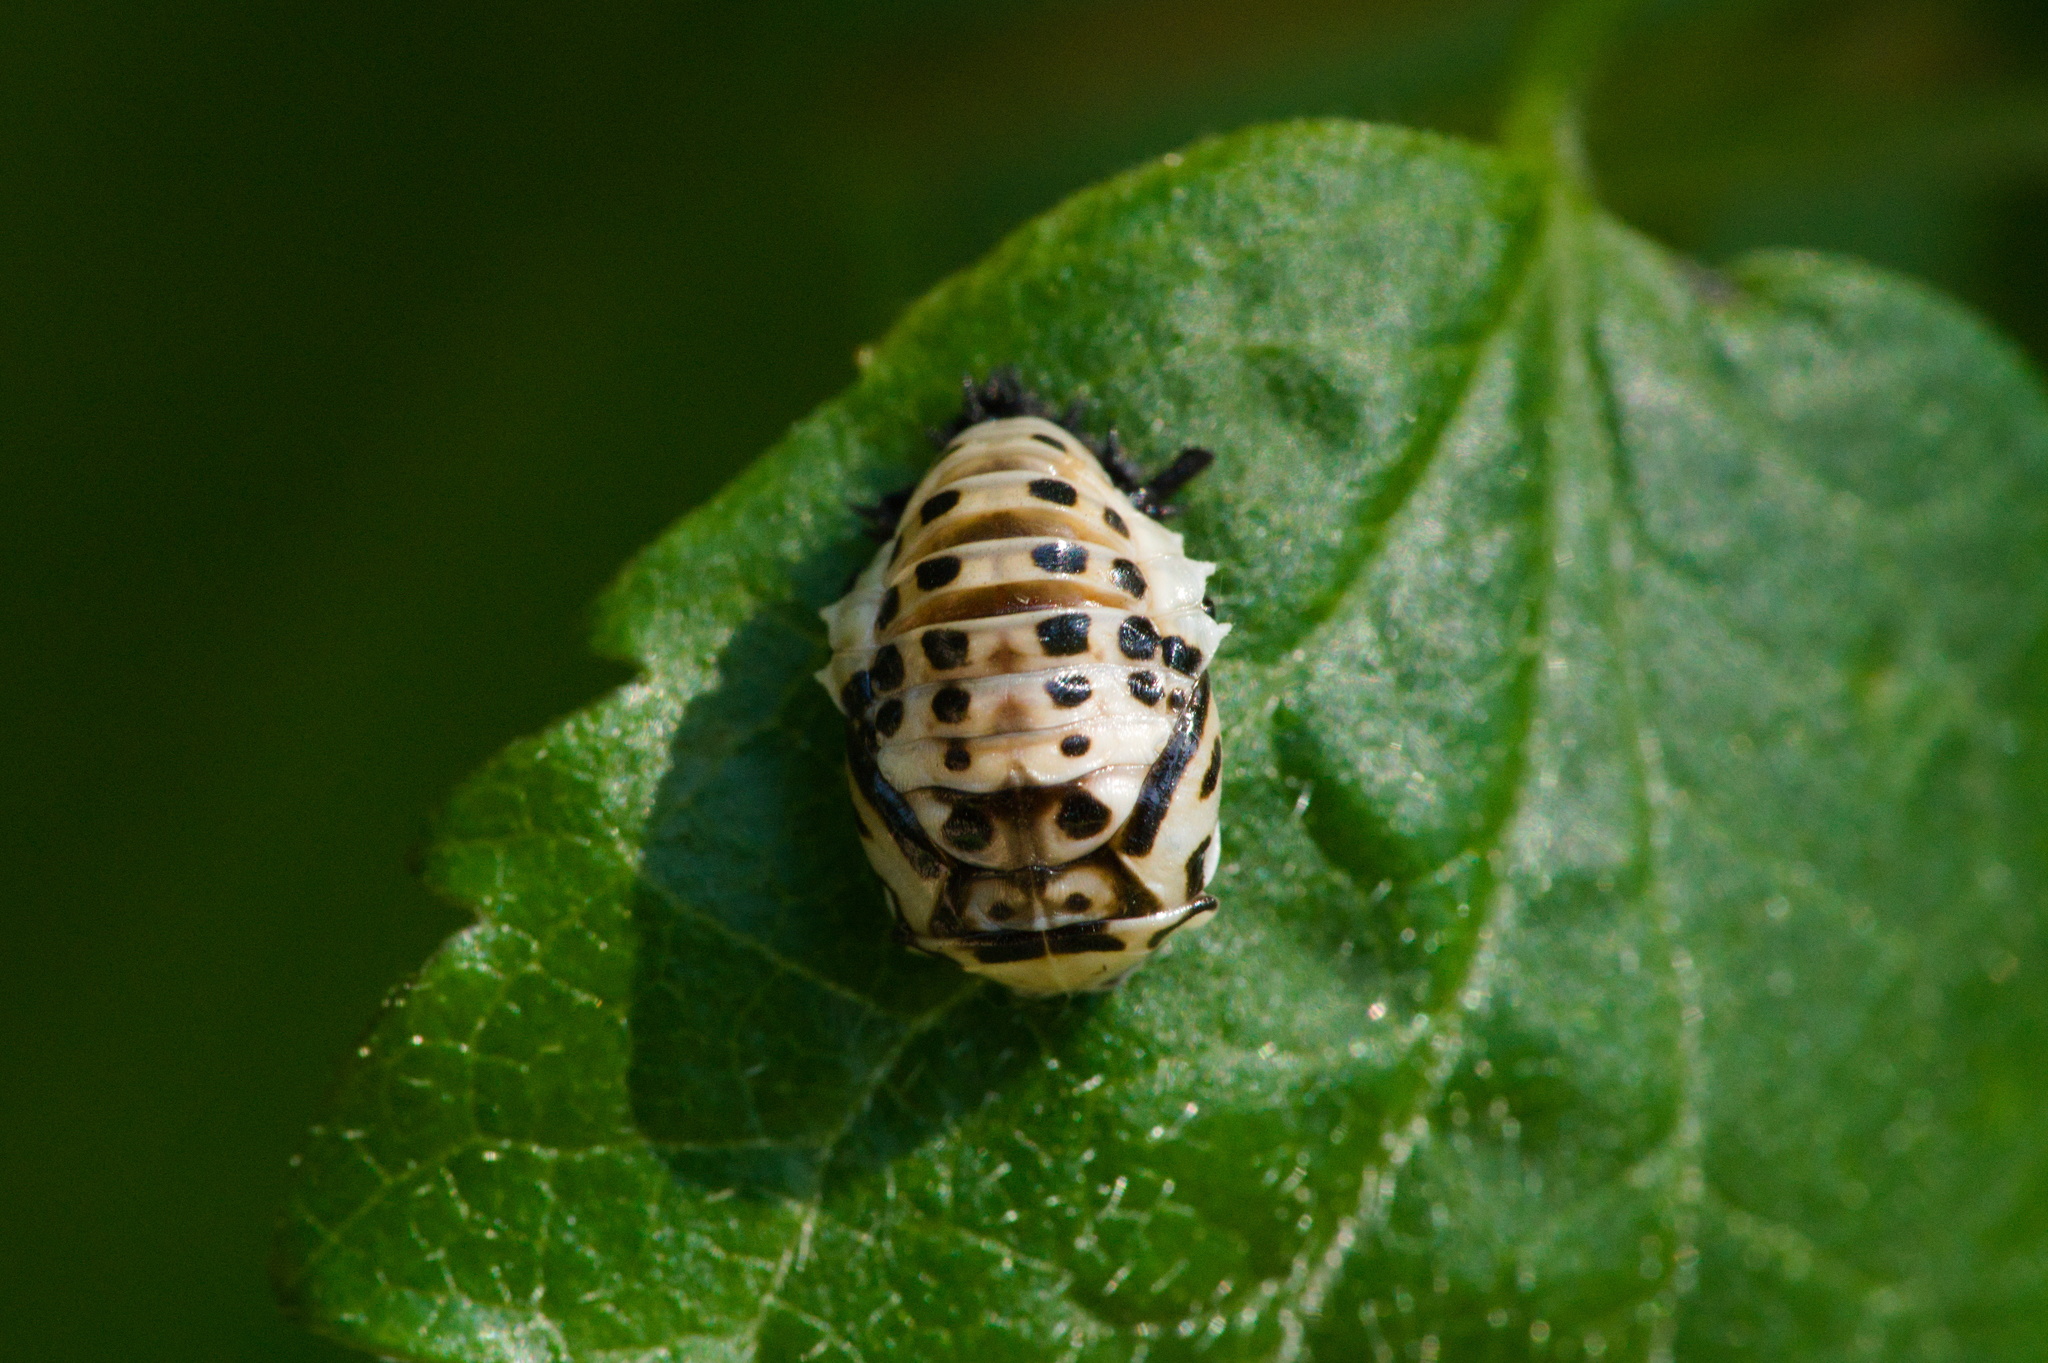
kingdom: Animalia
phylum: Arthropoda
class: Insecta
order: Coleoptera
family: Coccinellidae
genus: Anatis
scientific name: Anatis ocellata
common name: Eyed ladybird
